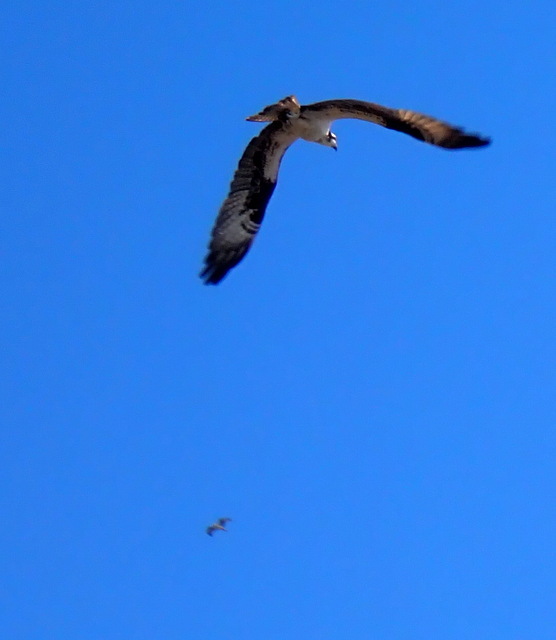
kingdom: Animalia
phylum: Chordata
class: Aves
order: Accipitriformes
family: Pandionidae
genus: Pandion
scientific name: Pandion haliaetus
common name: Osprey
